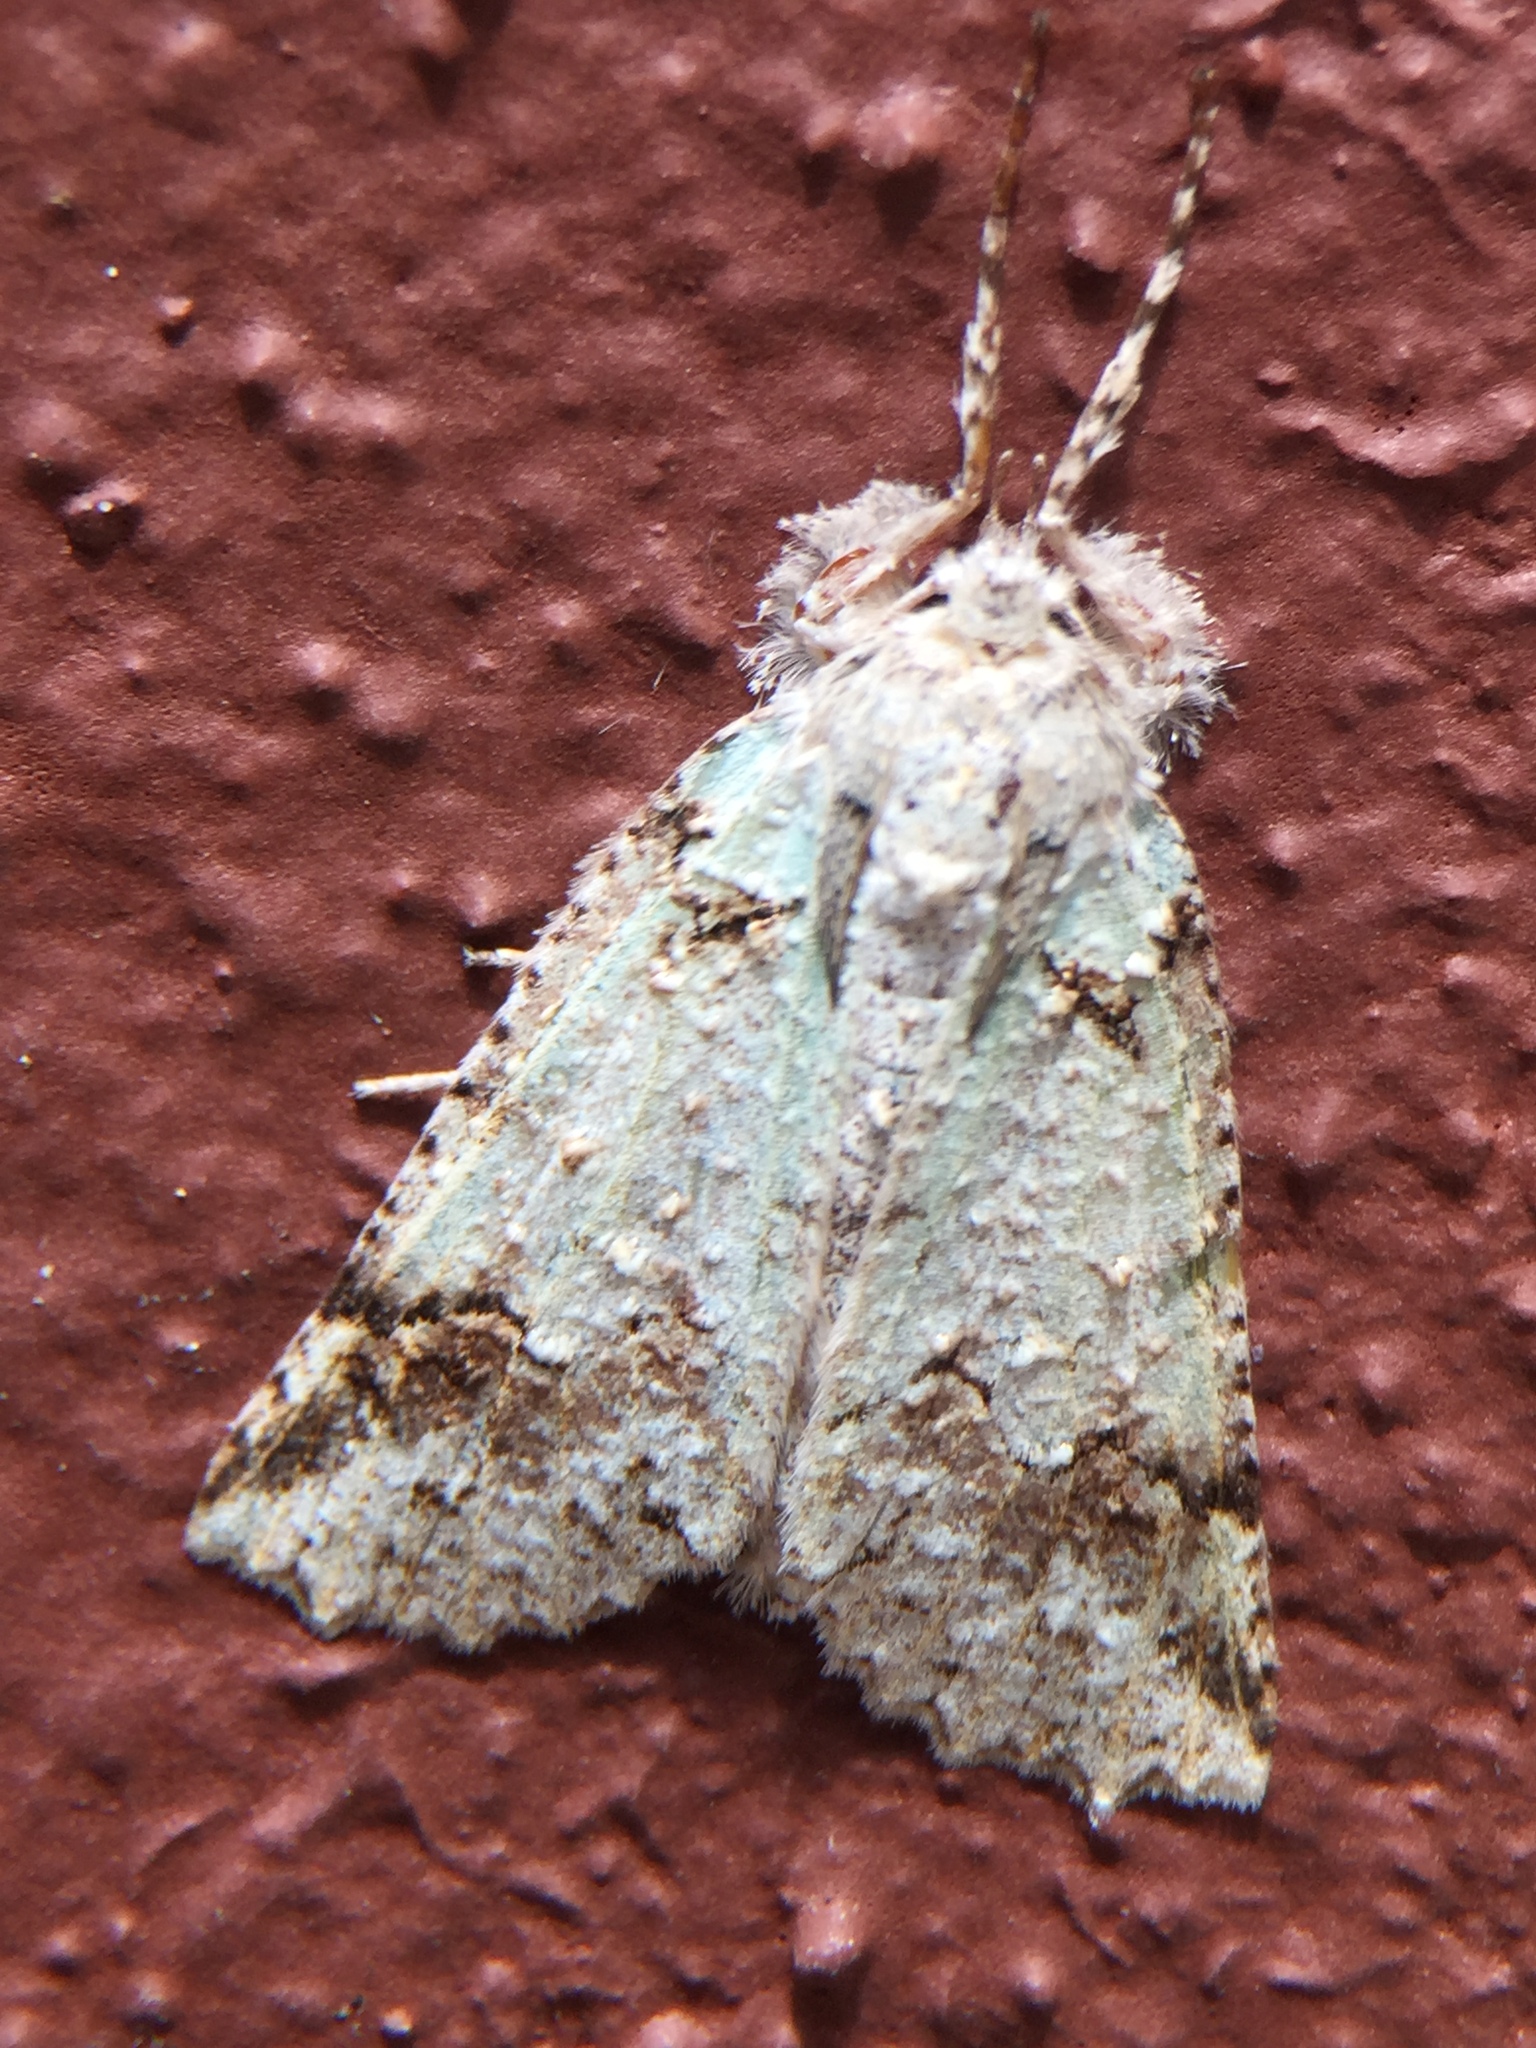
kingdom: Animalia
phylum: Arthropoda
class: Insecta
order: Lepidoptera
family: Geometridae
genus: Declana
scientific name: Declana floccosa
